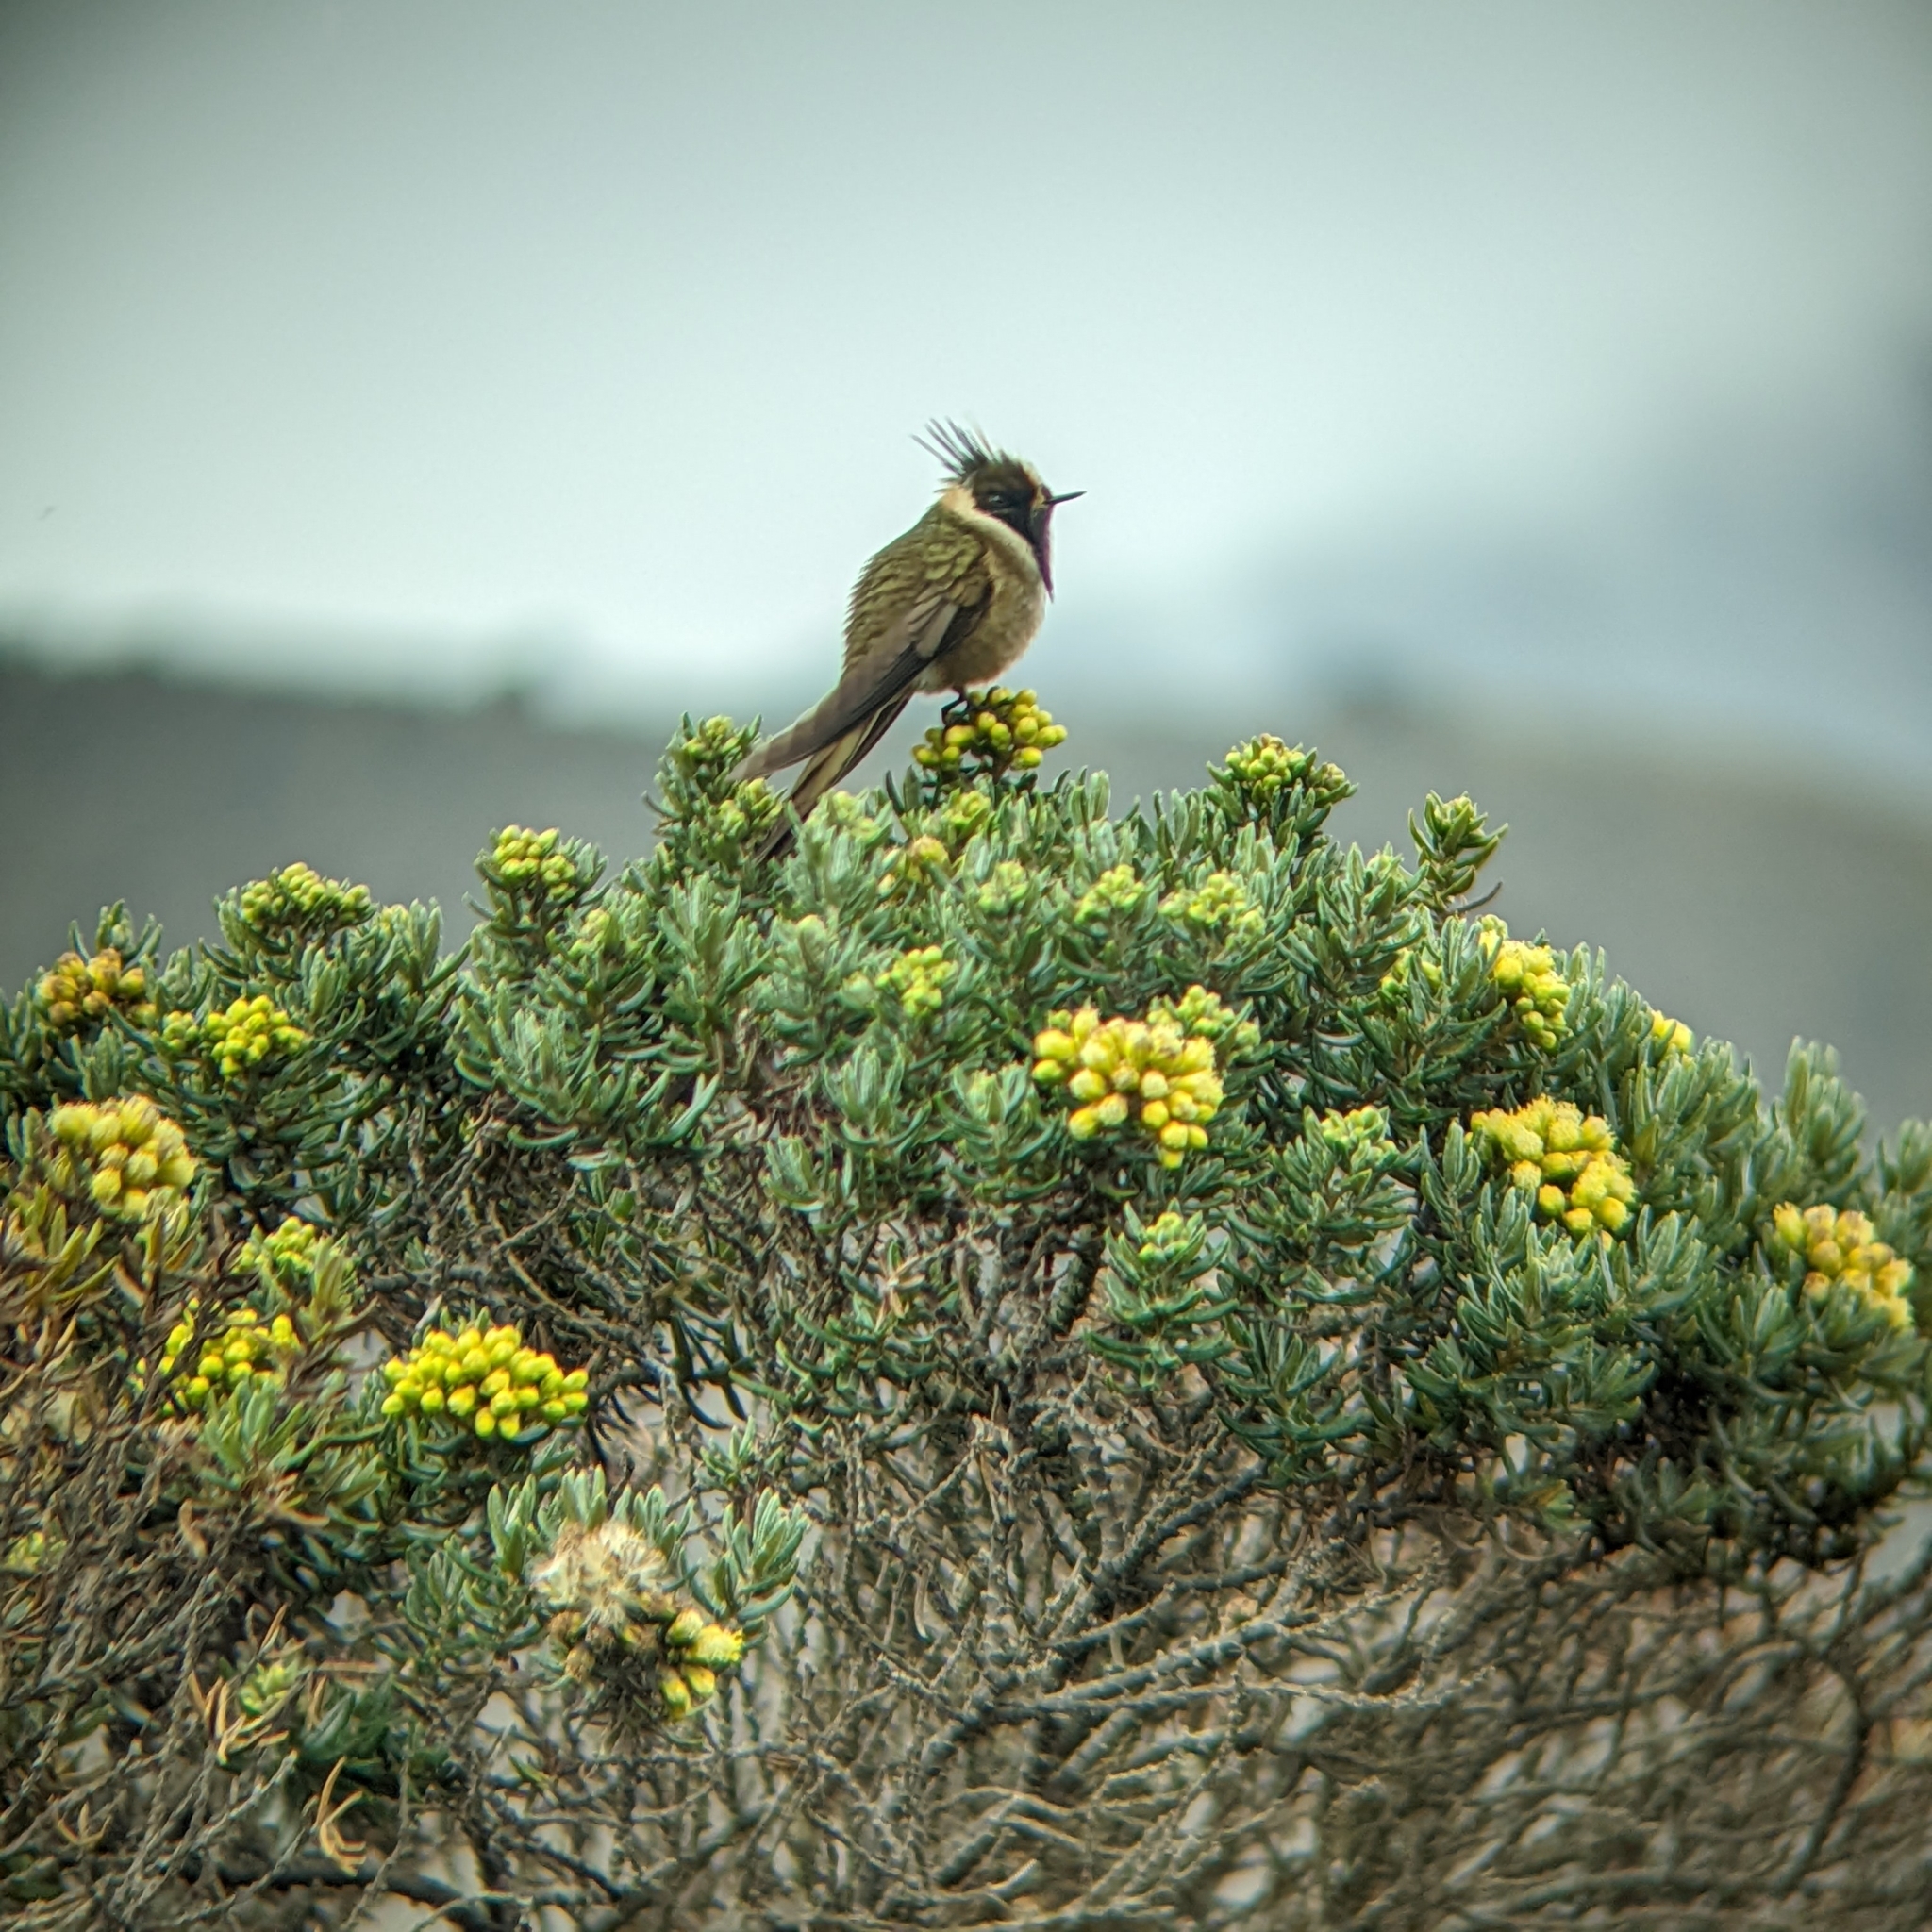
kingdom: Animalia
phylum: Chordata
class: Aves
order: Apodiformes
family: Trochilidae
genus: Oxypogon
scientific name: Oxypogon stuebelii
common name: Buffy helmetcrest
